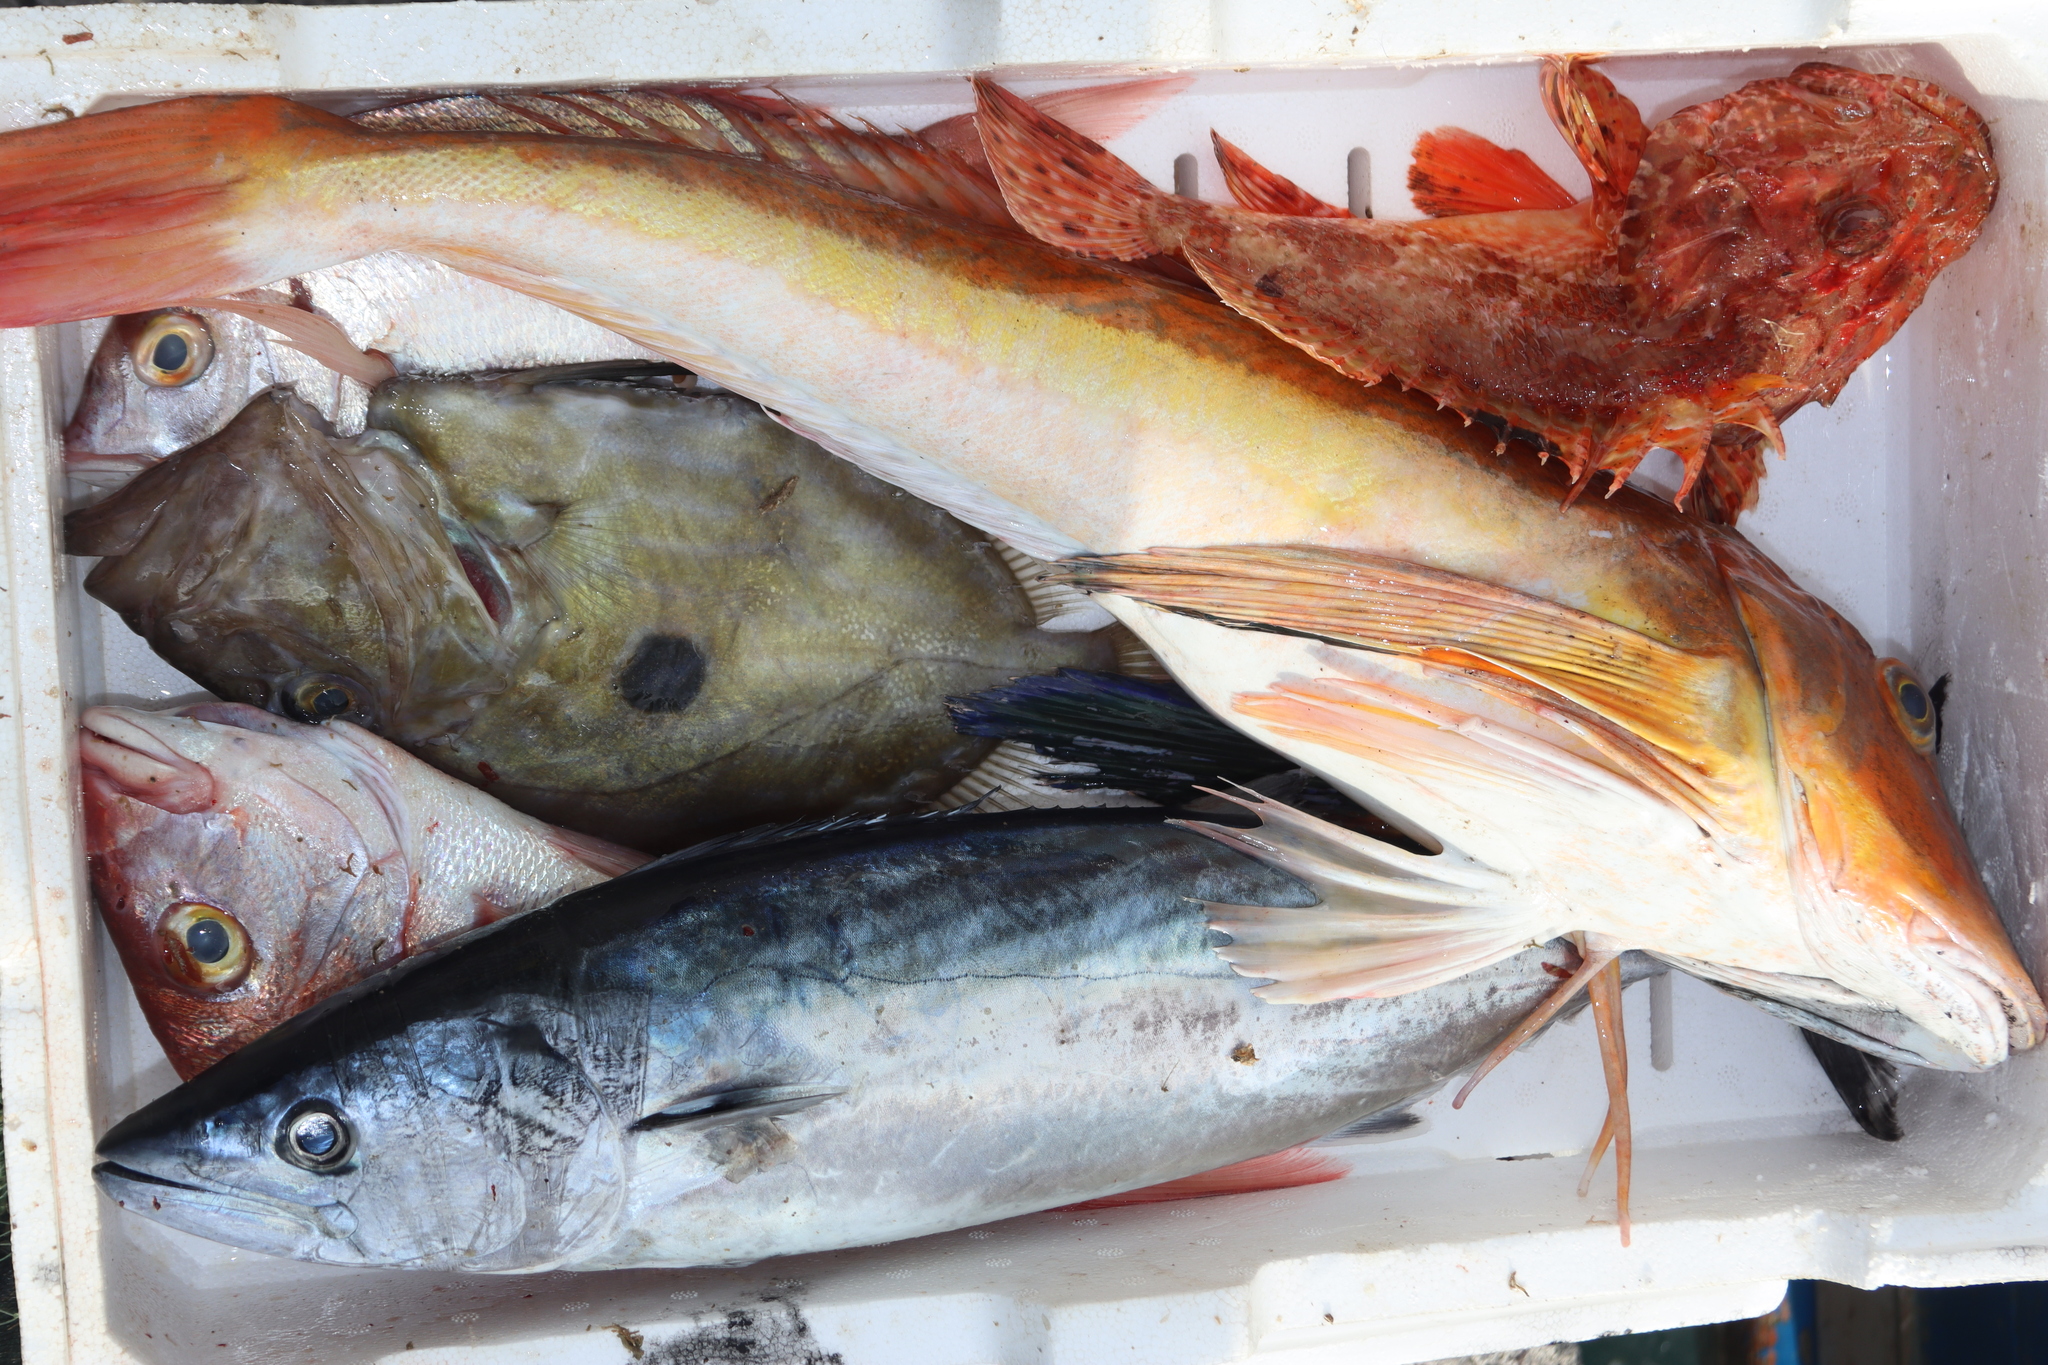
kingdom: Animalia
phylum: Chordata
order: Perciformes
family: Scombridae
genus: Sarda
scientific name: Sarda sarda
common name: Atlantic bonito
